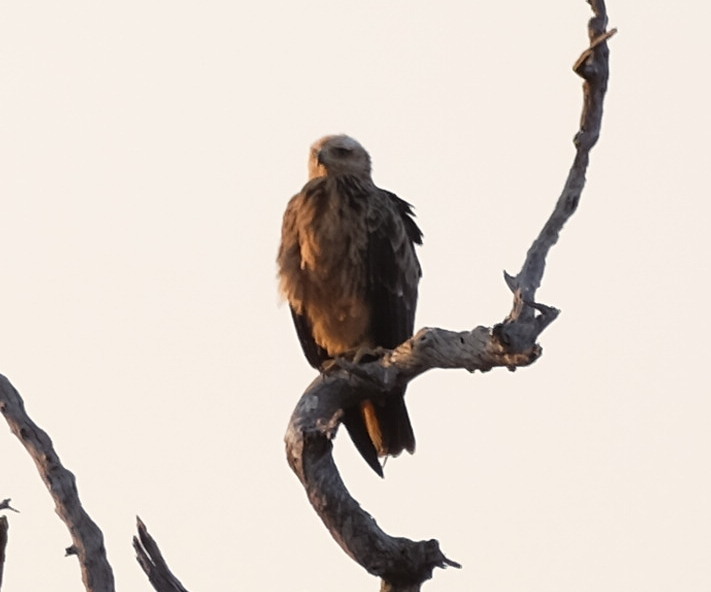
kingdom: Animalia
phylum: Chordata
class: Aves
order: Accipitriformes
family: Accipitridae
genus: Milvus
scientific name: Milvus migrans
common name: Black kite
